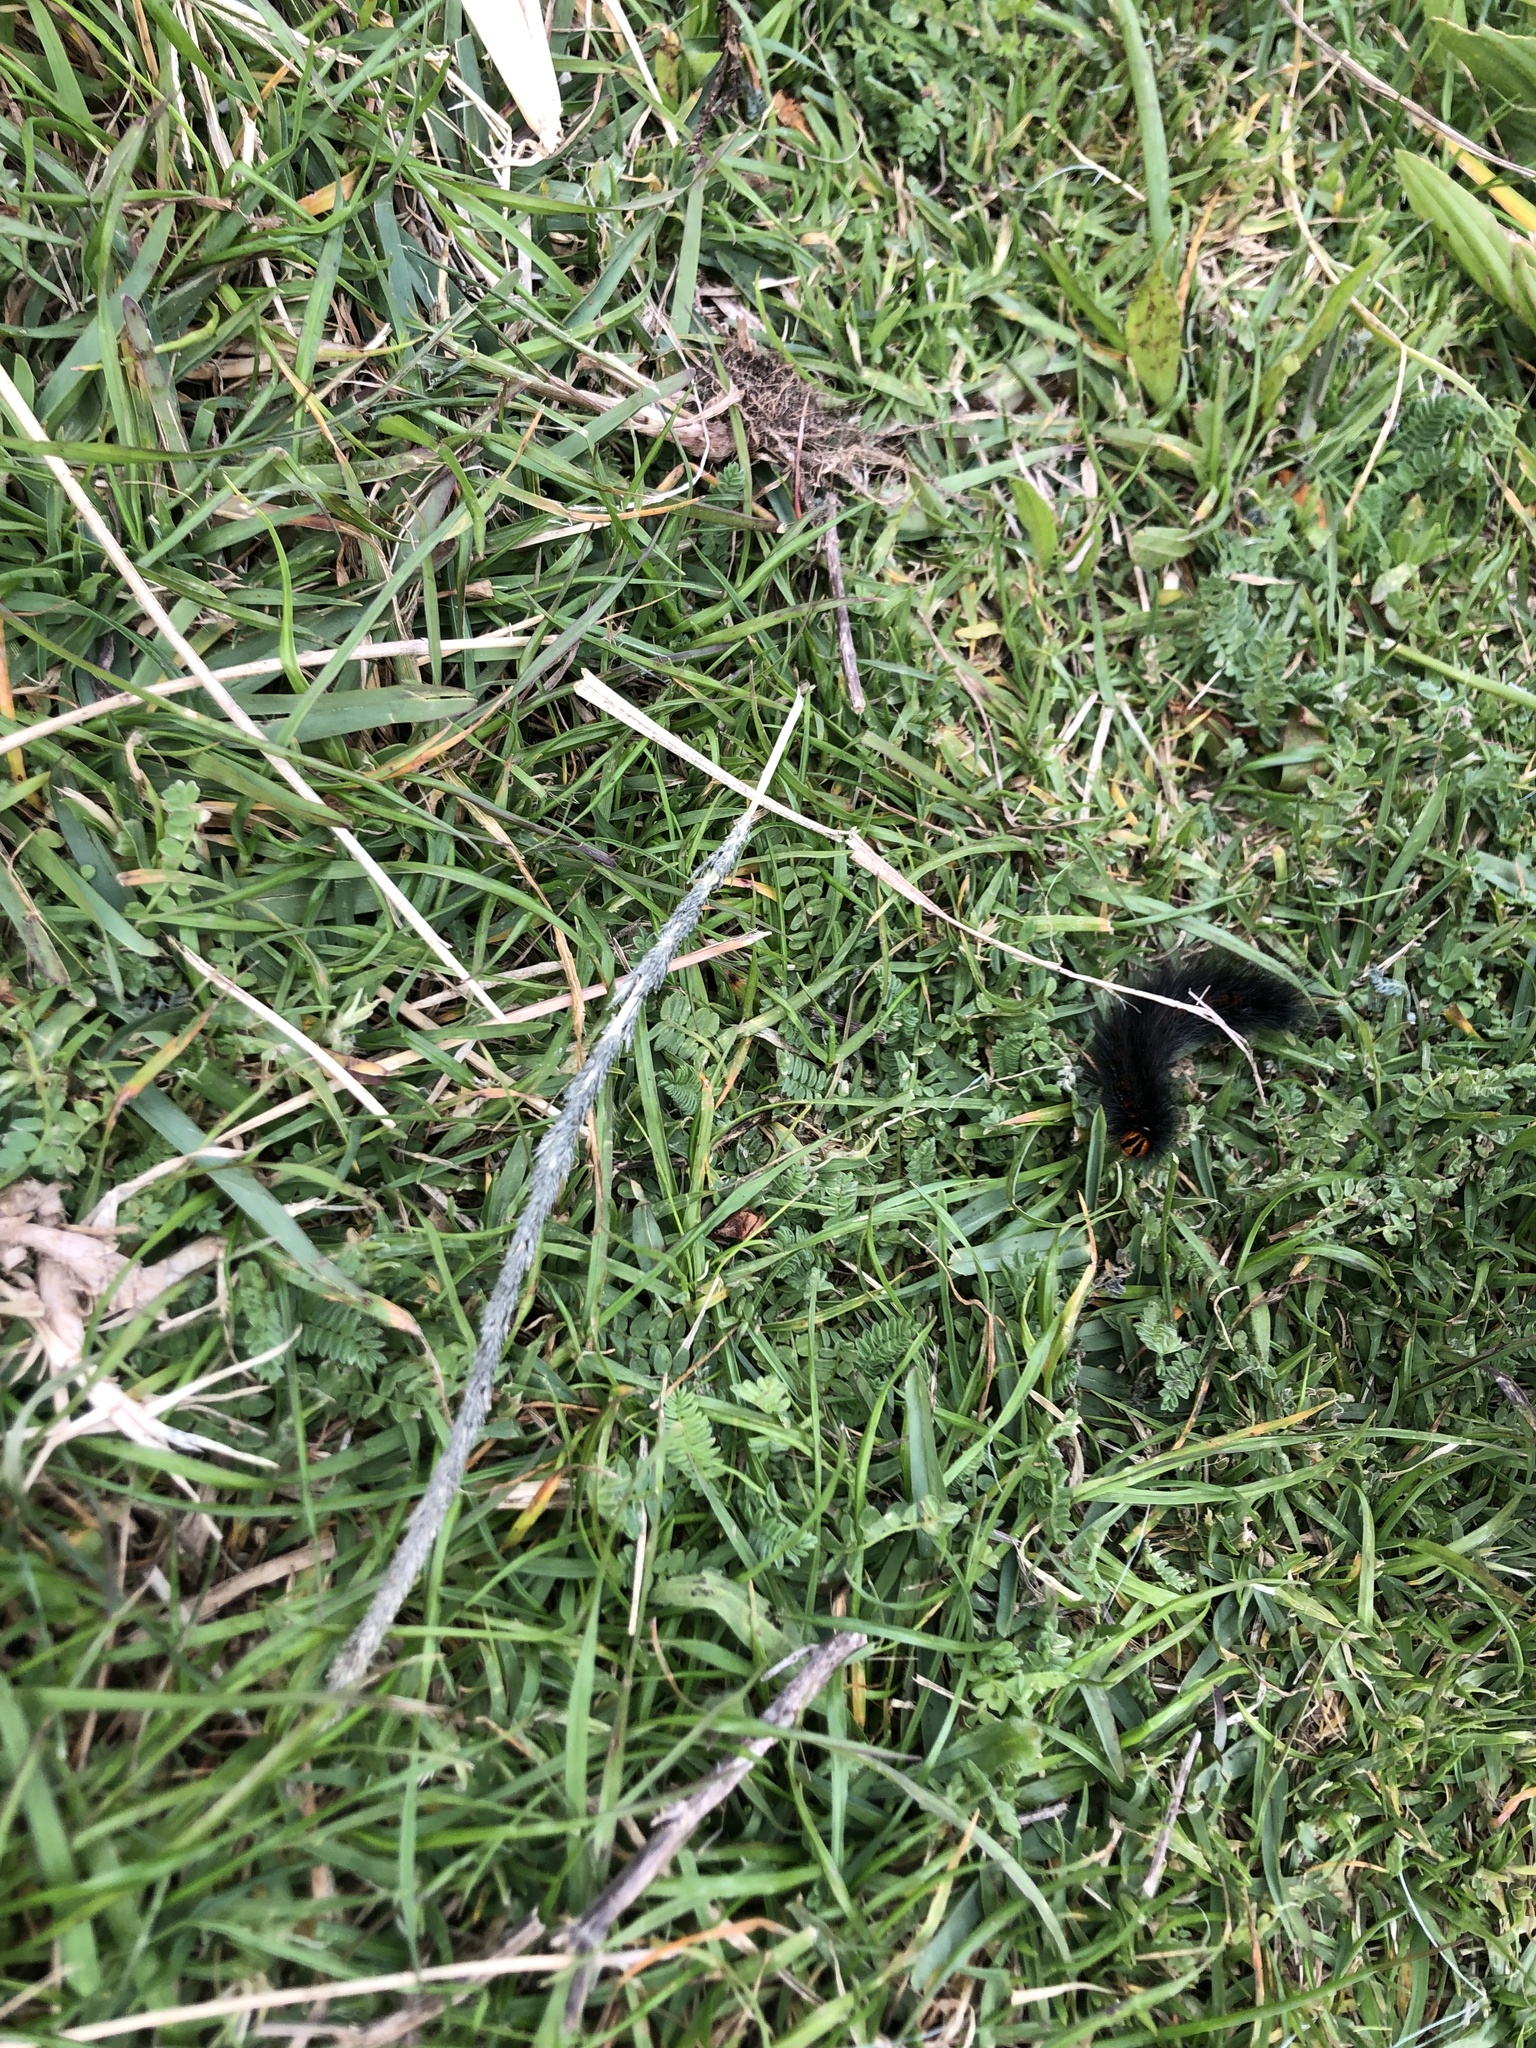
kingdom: Animalia
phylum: Arthropoda
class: Insecta
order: Lepidoptera
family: Lasiocampidae
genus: Mesocelis
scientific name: Mesocelis monticola
